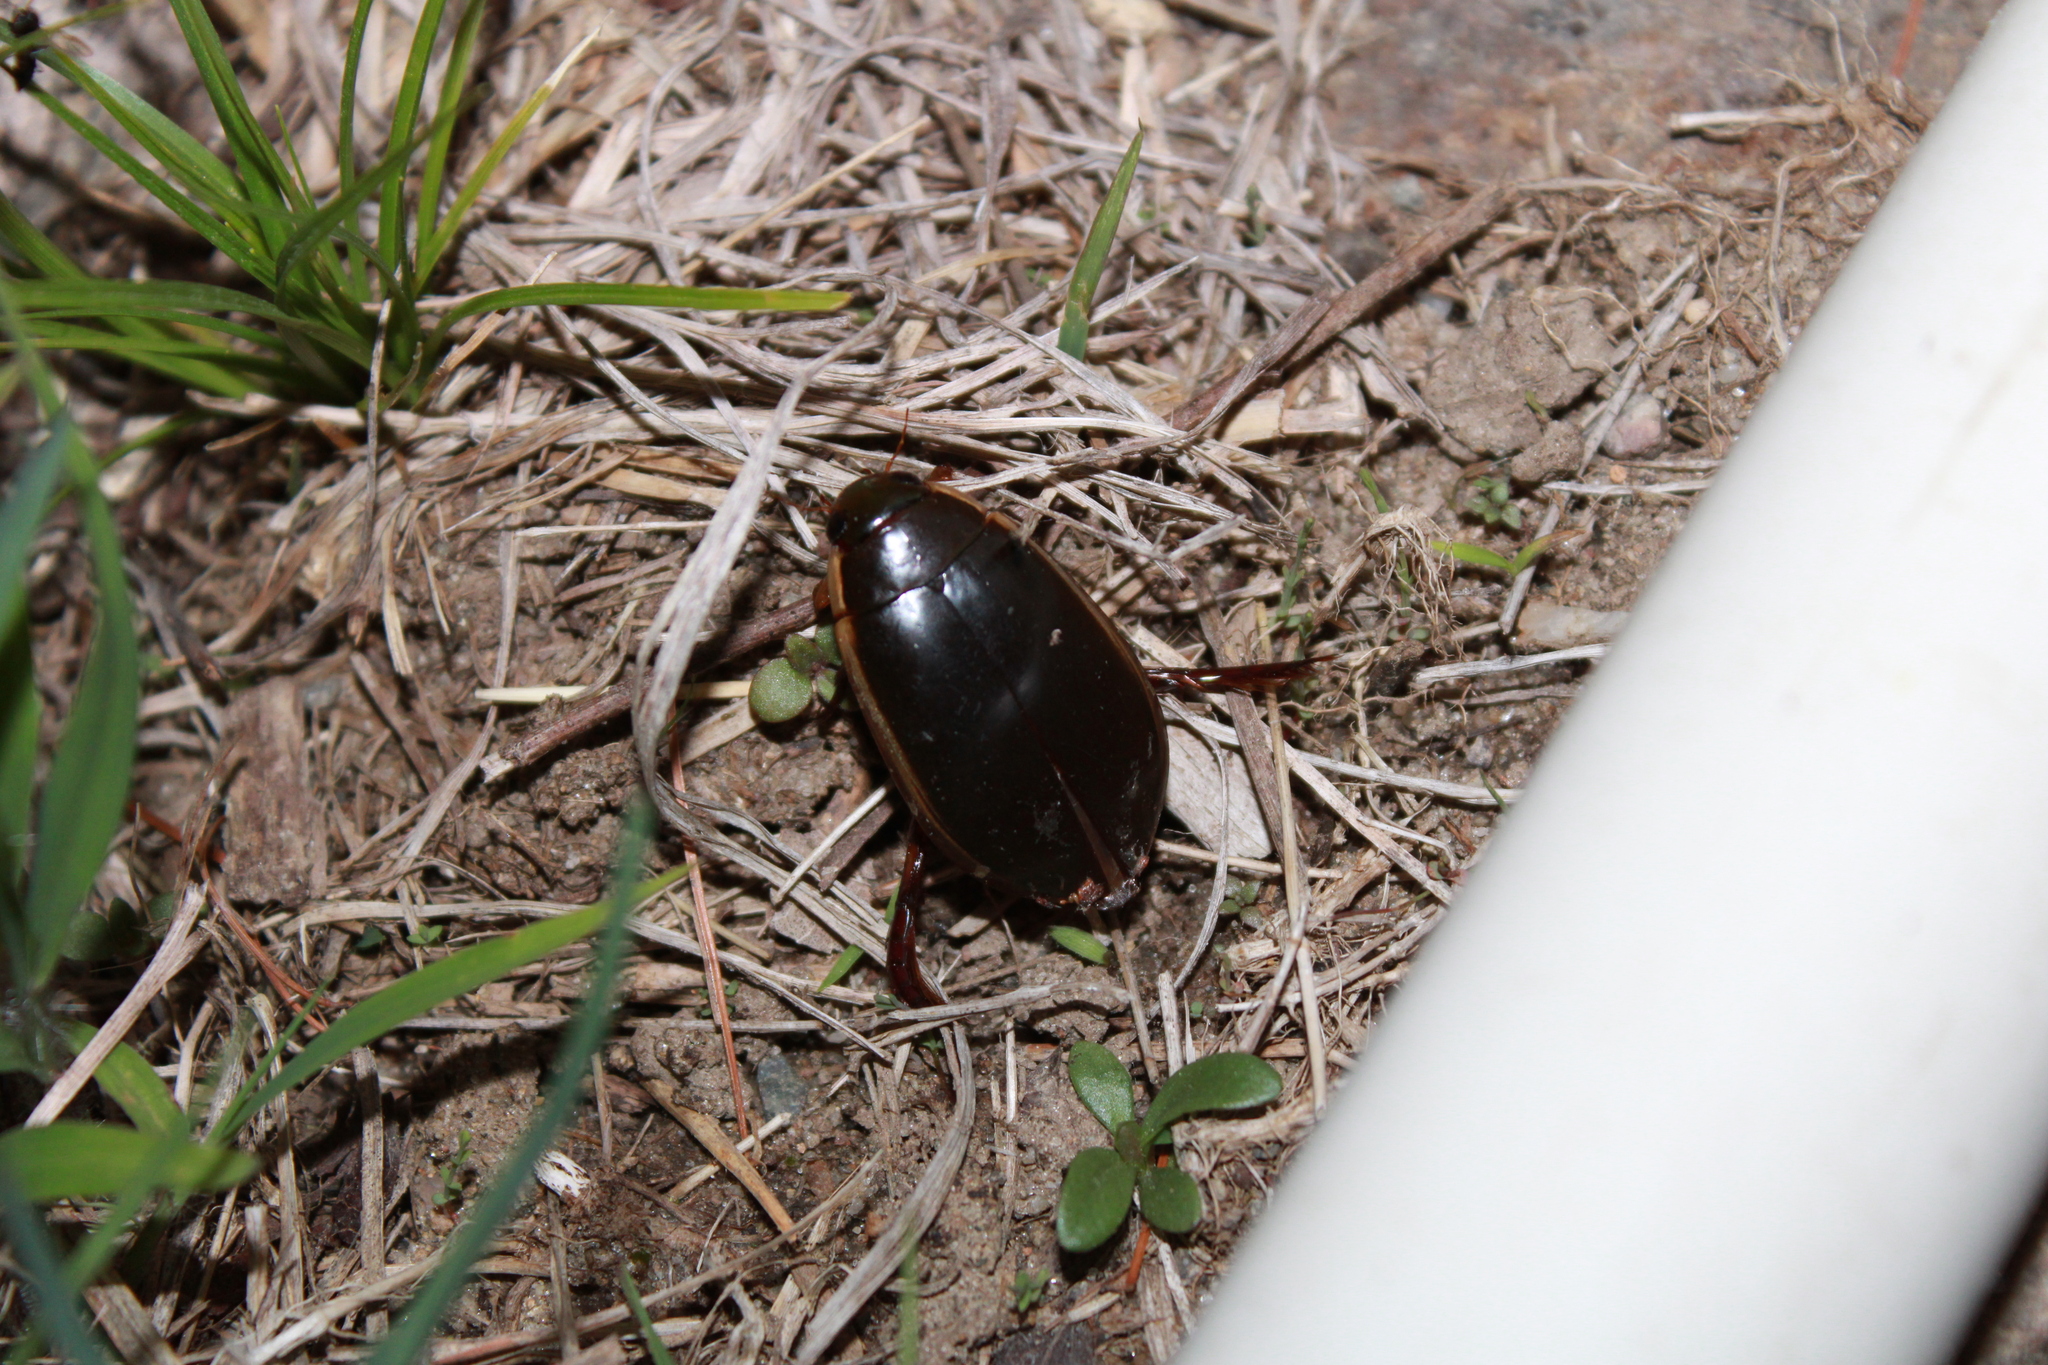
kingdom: Animalia
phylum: Arthropoda
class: Insecta
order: Coleoptera
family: Dytiscidae
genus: Cybister
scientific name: Cybister fimbriolatus
